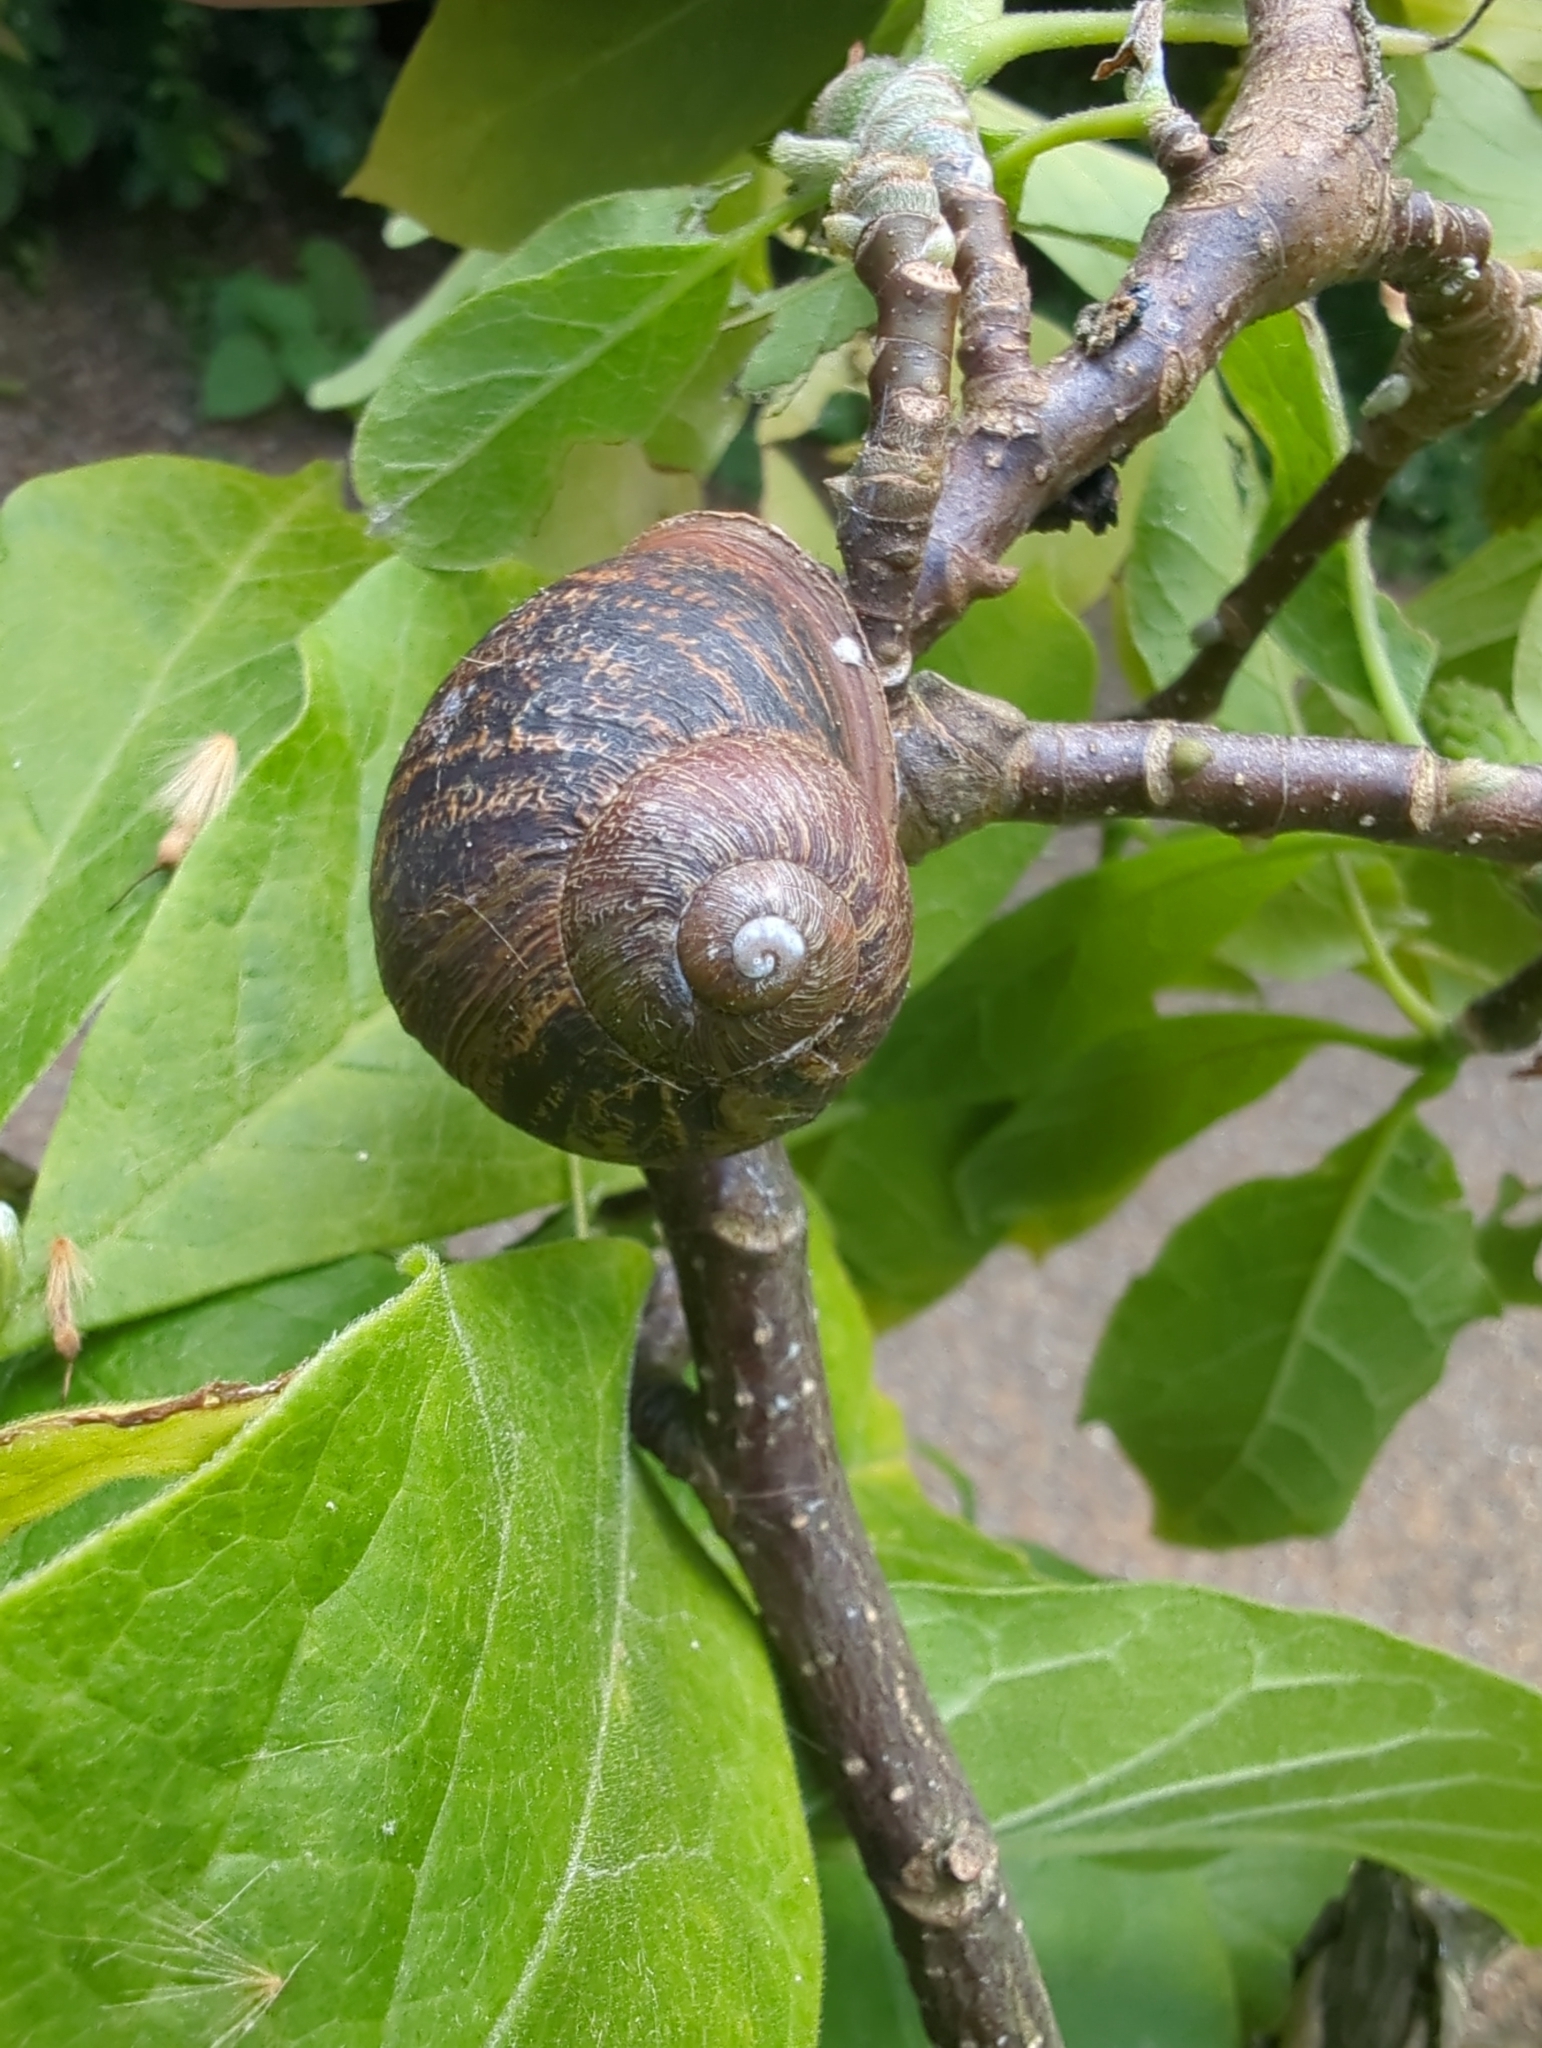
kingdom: Animalia
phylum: Mollusca
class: Gastropoda
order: Stylommatophora
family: Helicidae
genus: Cornu
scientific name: Cornu aspersum
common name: Brown garden snail
